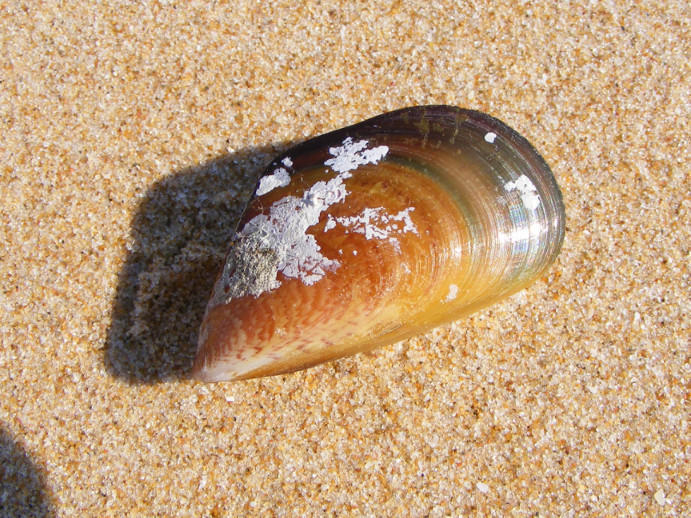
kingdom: Animalia
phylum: Mollusca
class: Bivalvia
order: Mytilida
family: Mytilidae
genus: Perna
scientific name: Perna perna
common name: Mexilhao mussel
